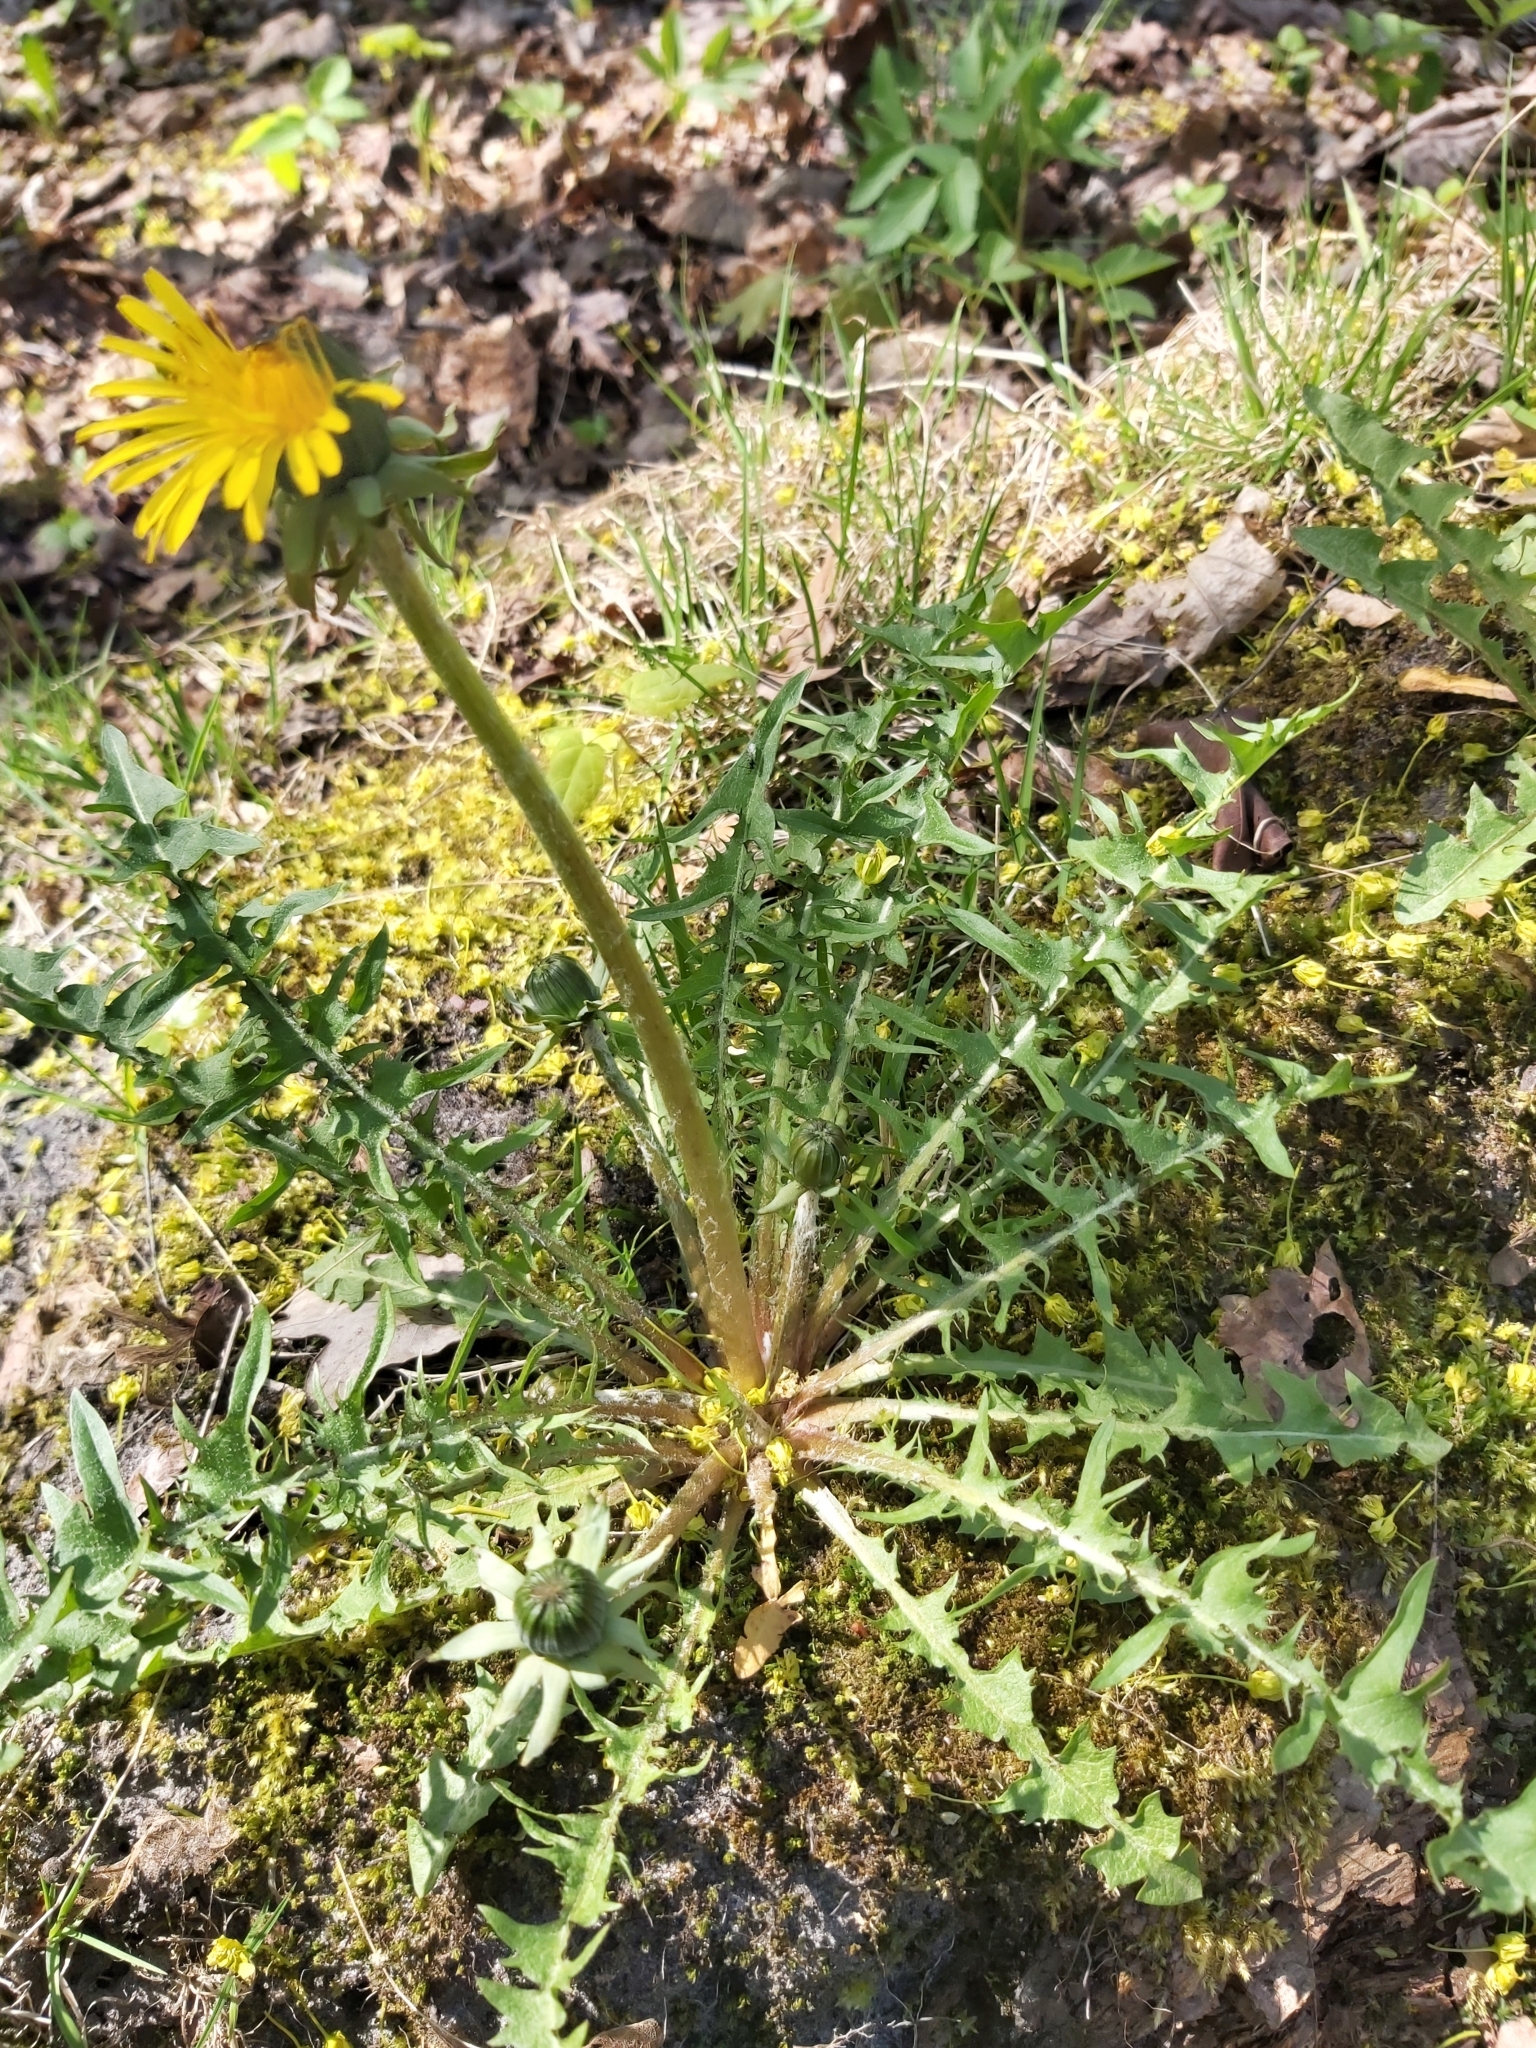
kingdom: Plantae
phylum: Tracheophyta
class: Magnoliopsida
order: Asterales
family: Asteraceae
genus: Taraxacum
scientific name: Taraxacum officinale
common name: Common dandelion
